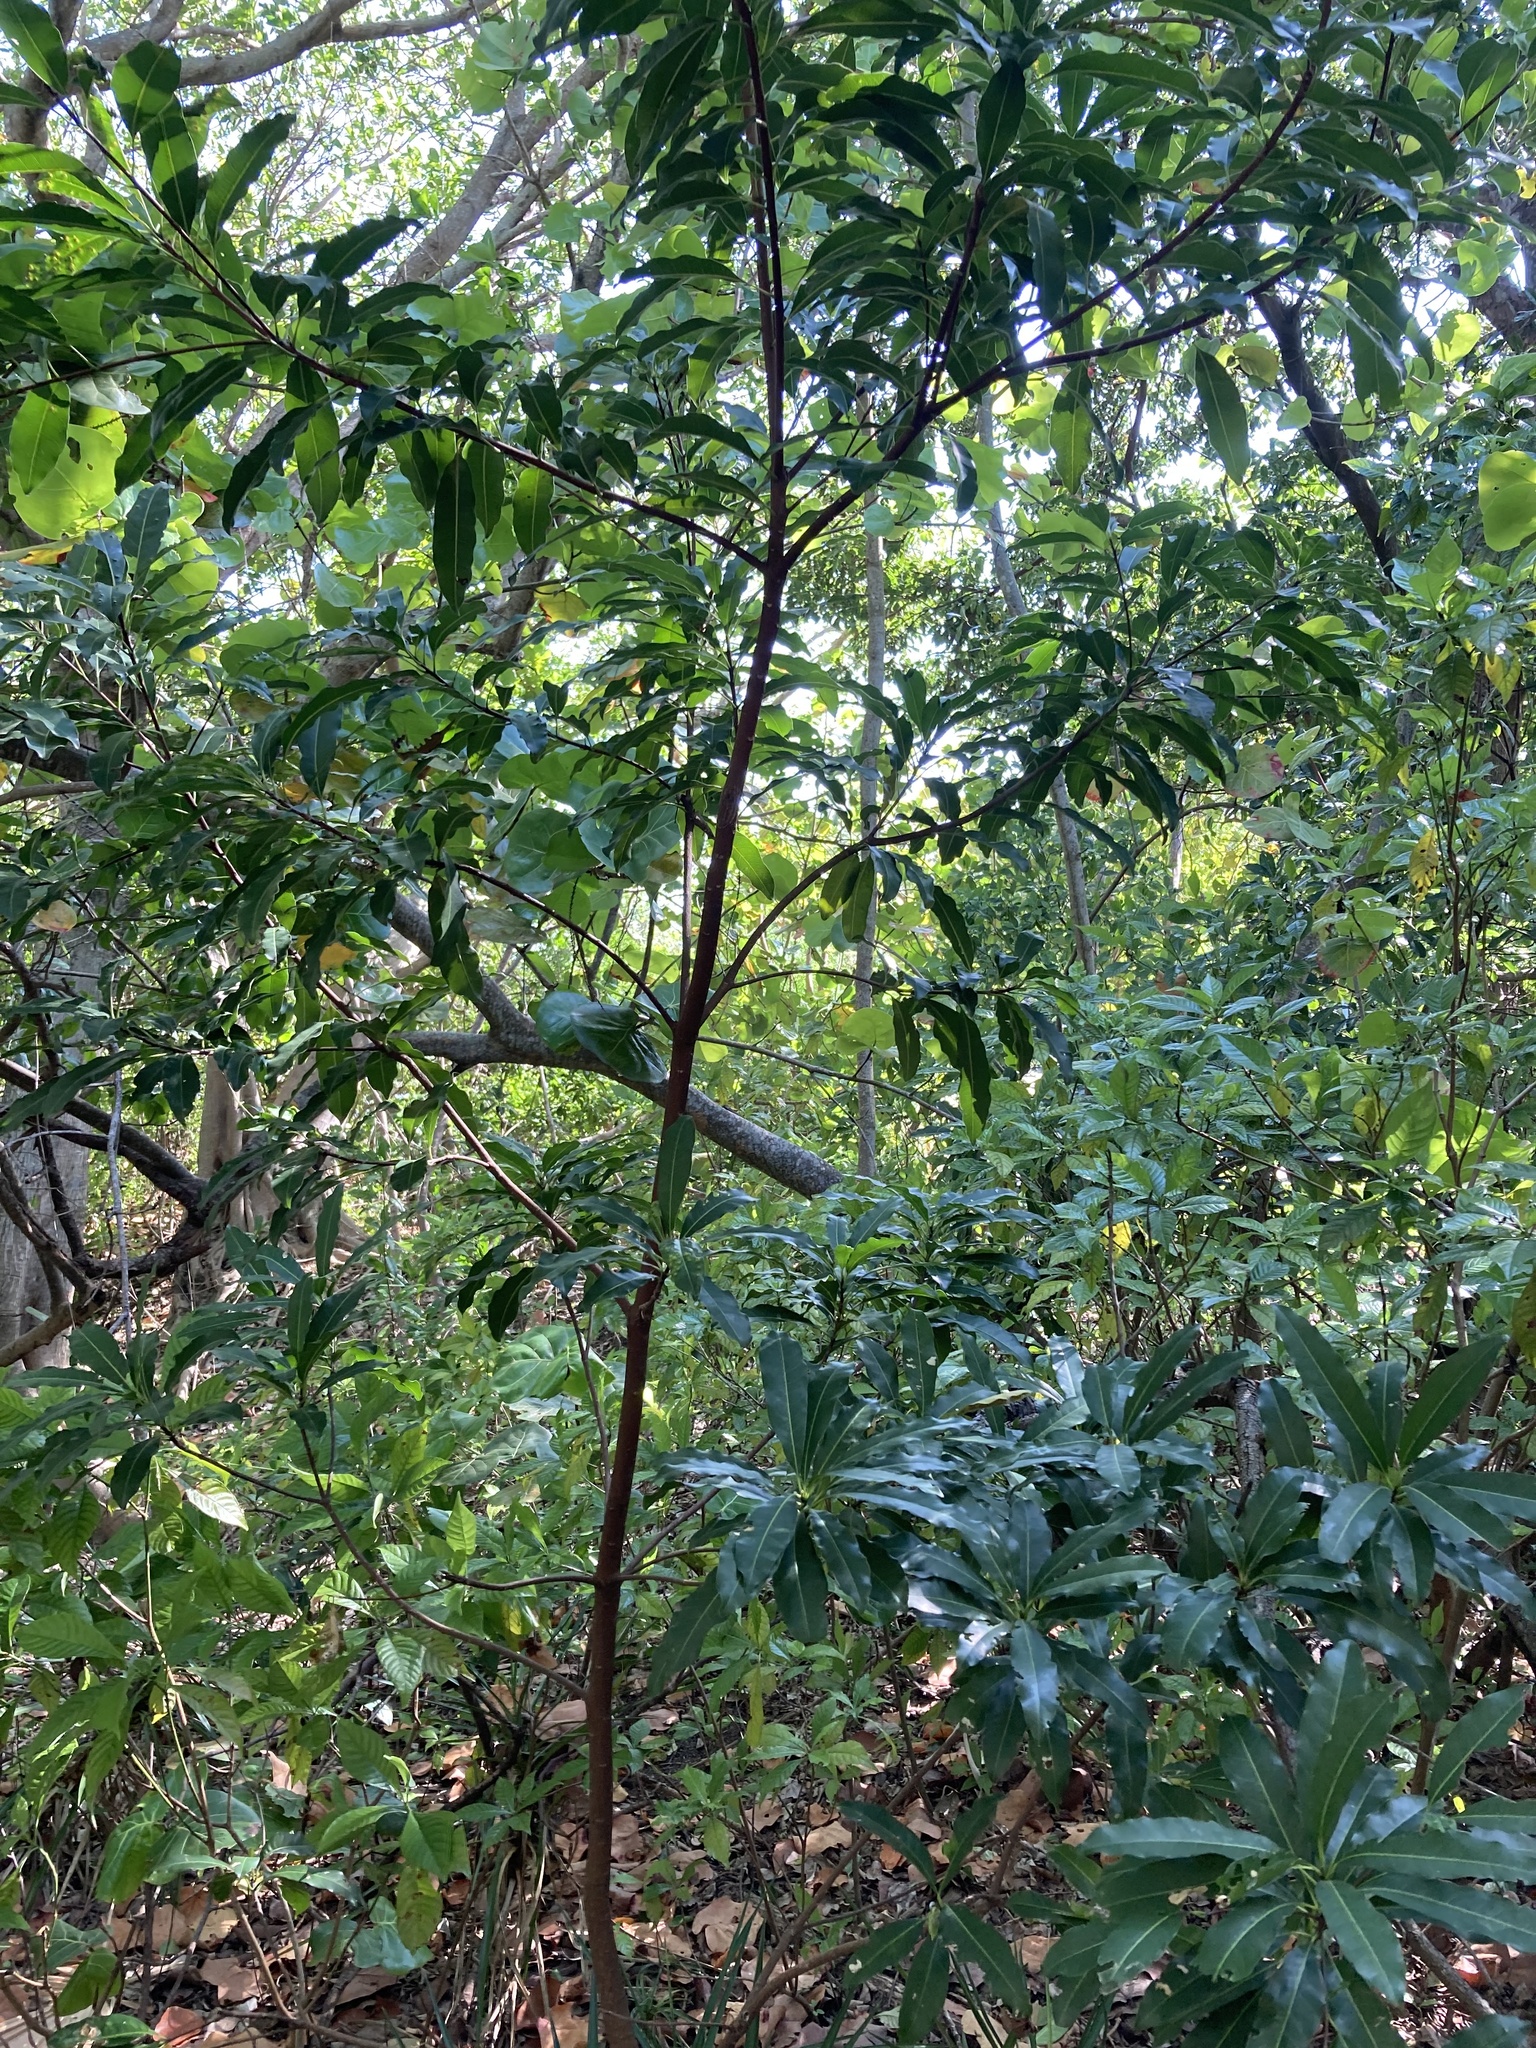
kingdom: Plantae
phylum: Tracheophyta
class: Magnoliopsida
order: Ericales
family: Sapotaceae
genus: Sideroxylon
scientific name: Sideroxylon foetidissimum
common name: Barbados-mastic
